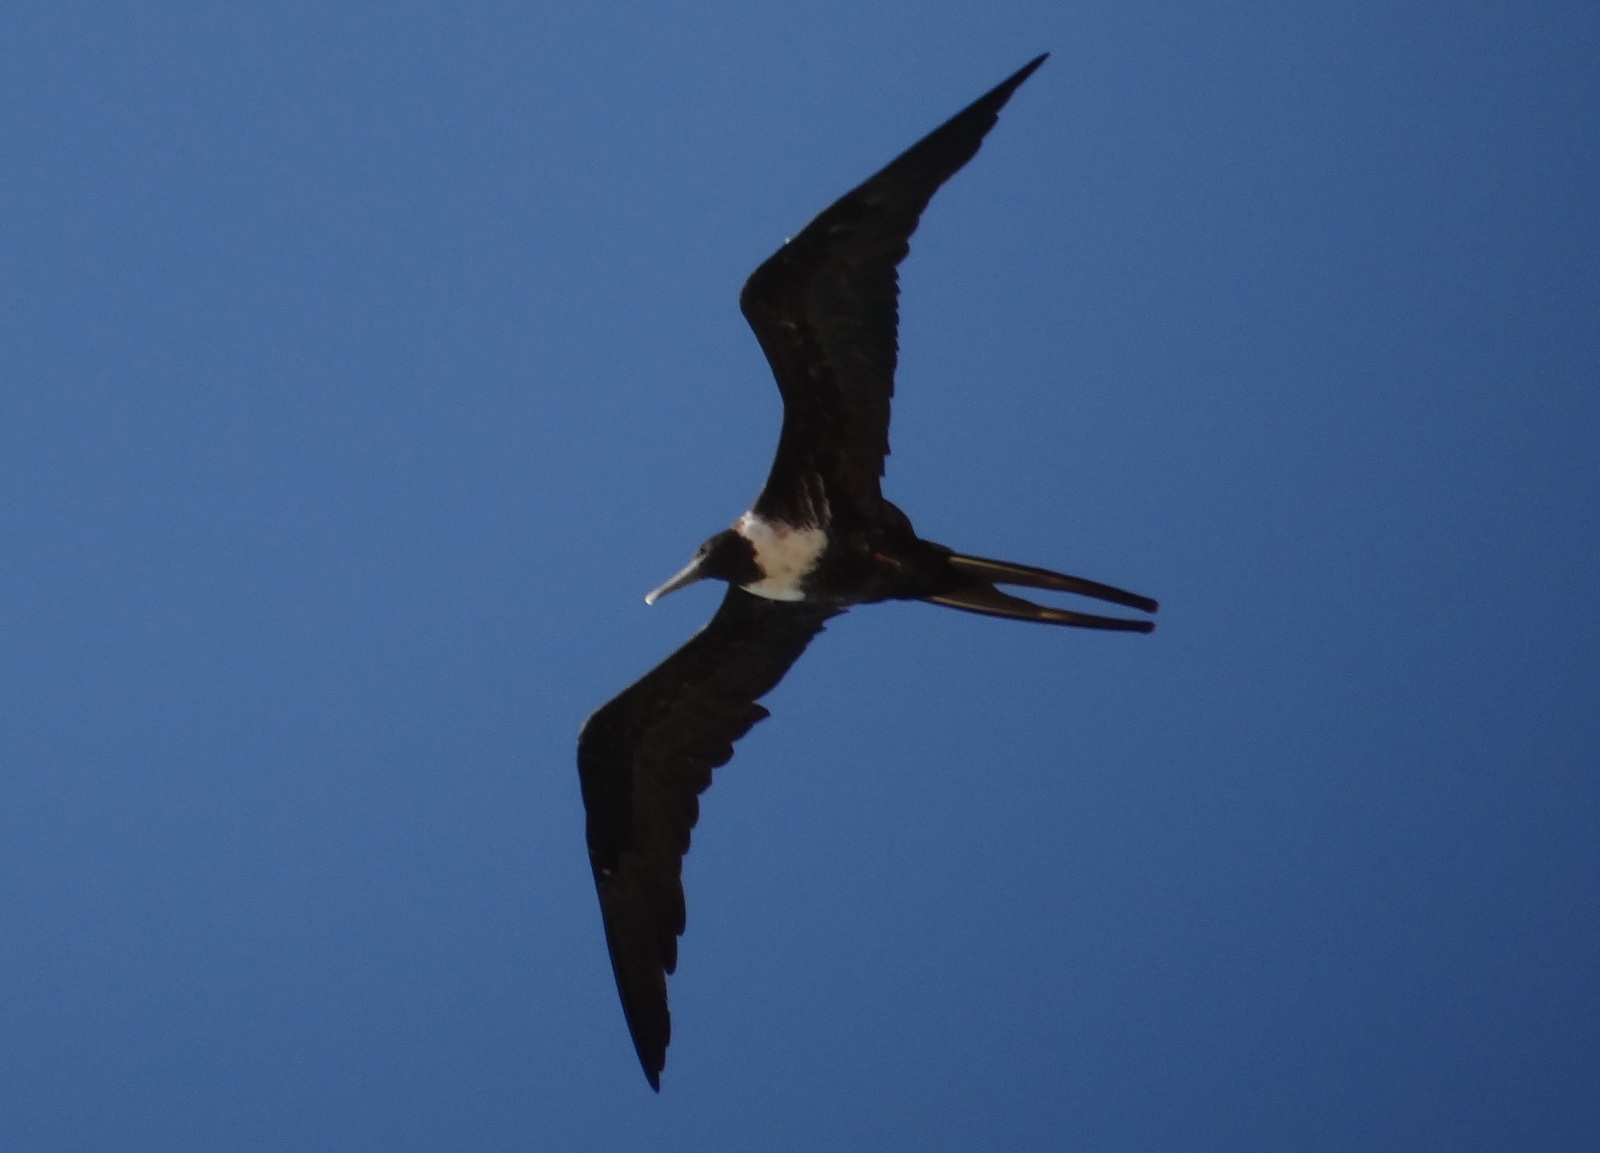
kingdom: Animalia
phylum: Chordata
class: Aves
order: Suliformes
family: Fregatidae
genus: Fregata
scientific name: Fregata magnificens
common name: Magnificent frigatebird
